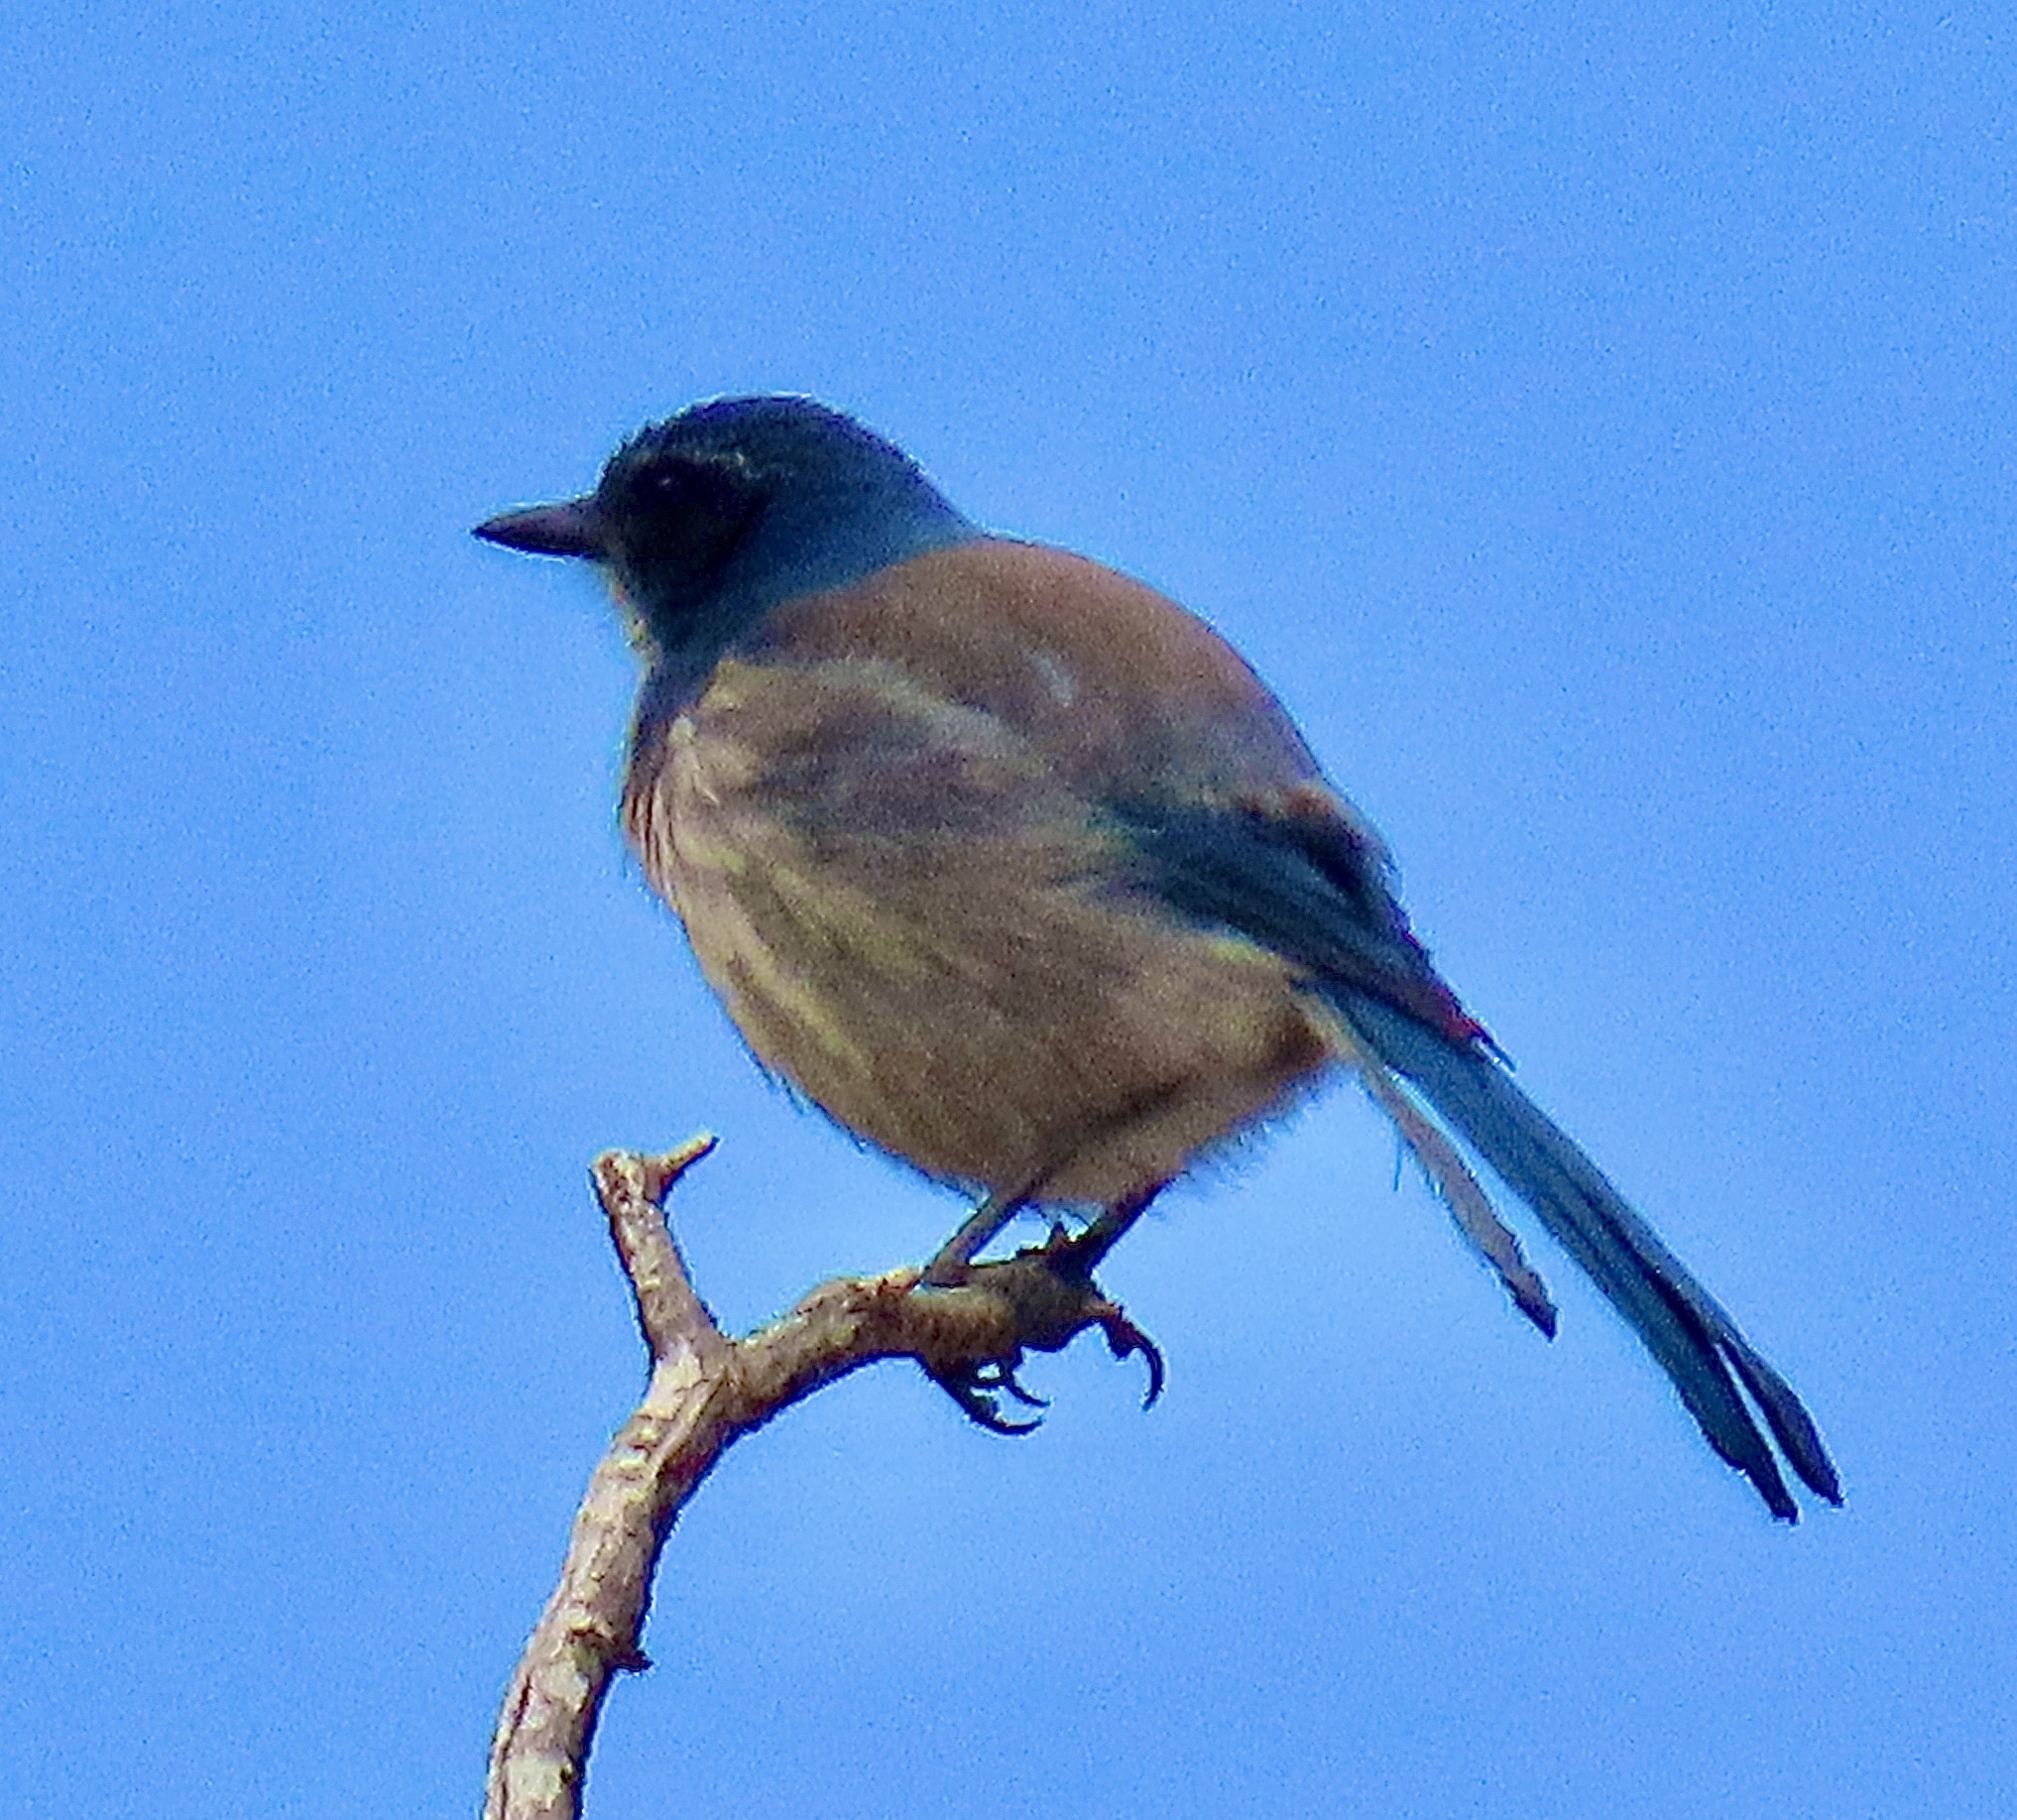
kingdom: Animalia
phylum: Chordata
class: Aves
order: Passeriformes
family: Corvidae
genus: Aphelocoma
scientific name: Aphelocoma californica
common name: California scrub-jay
